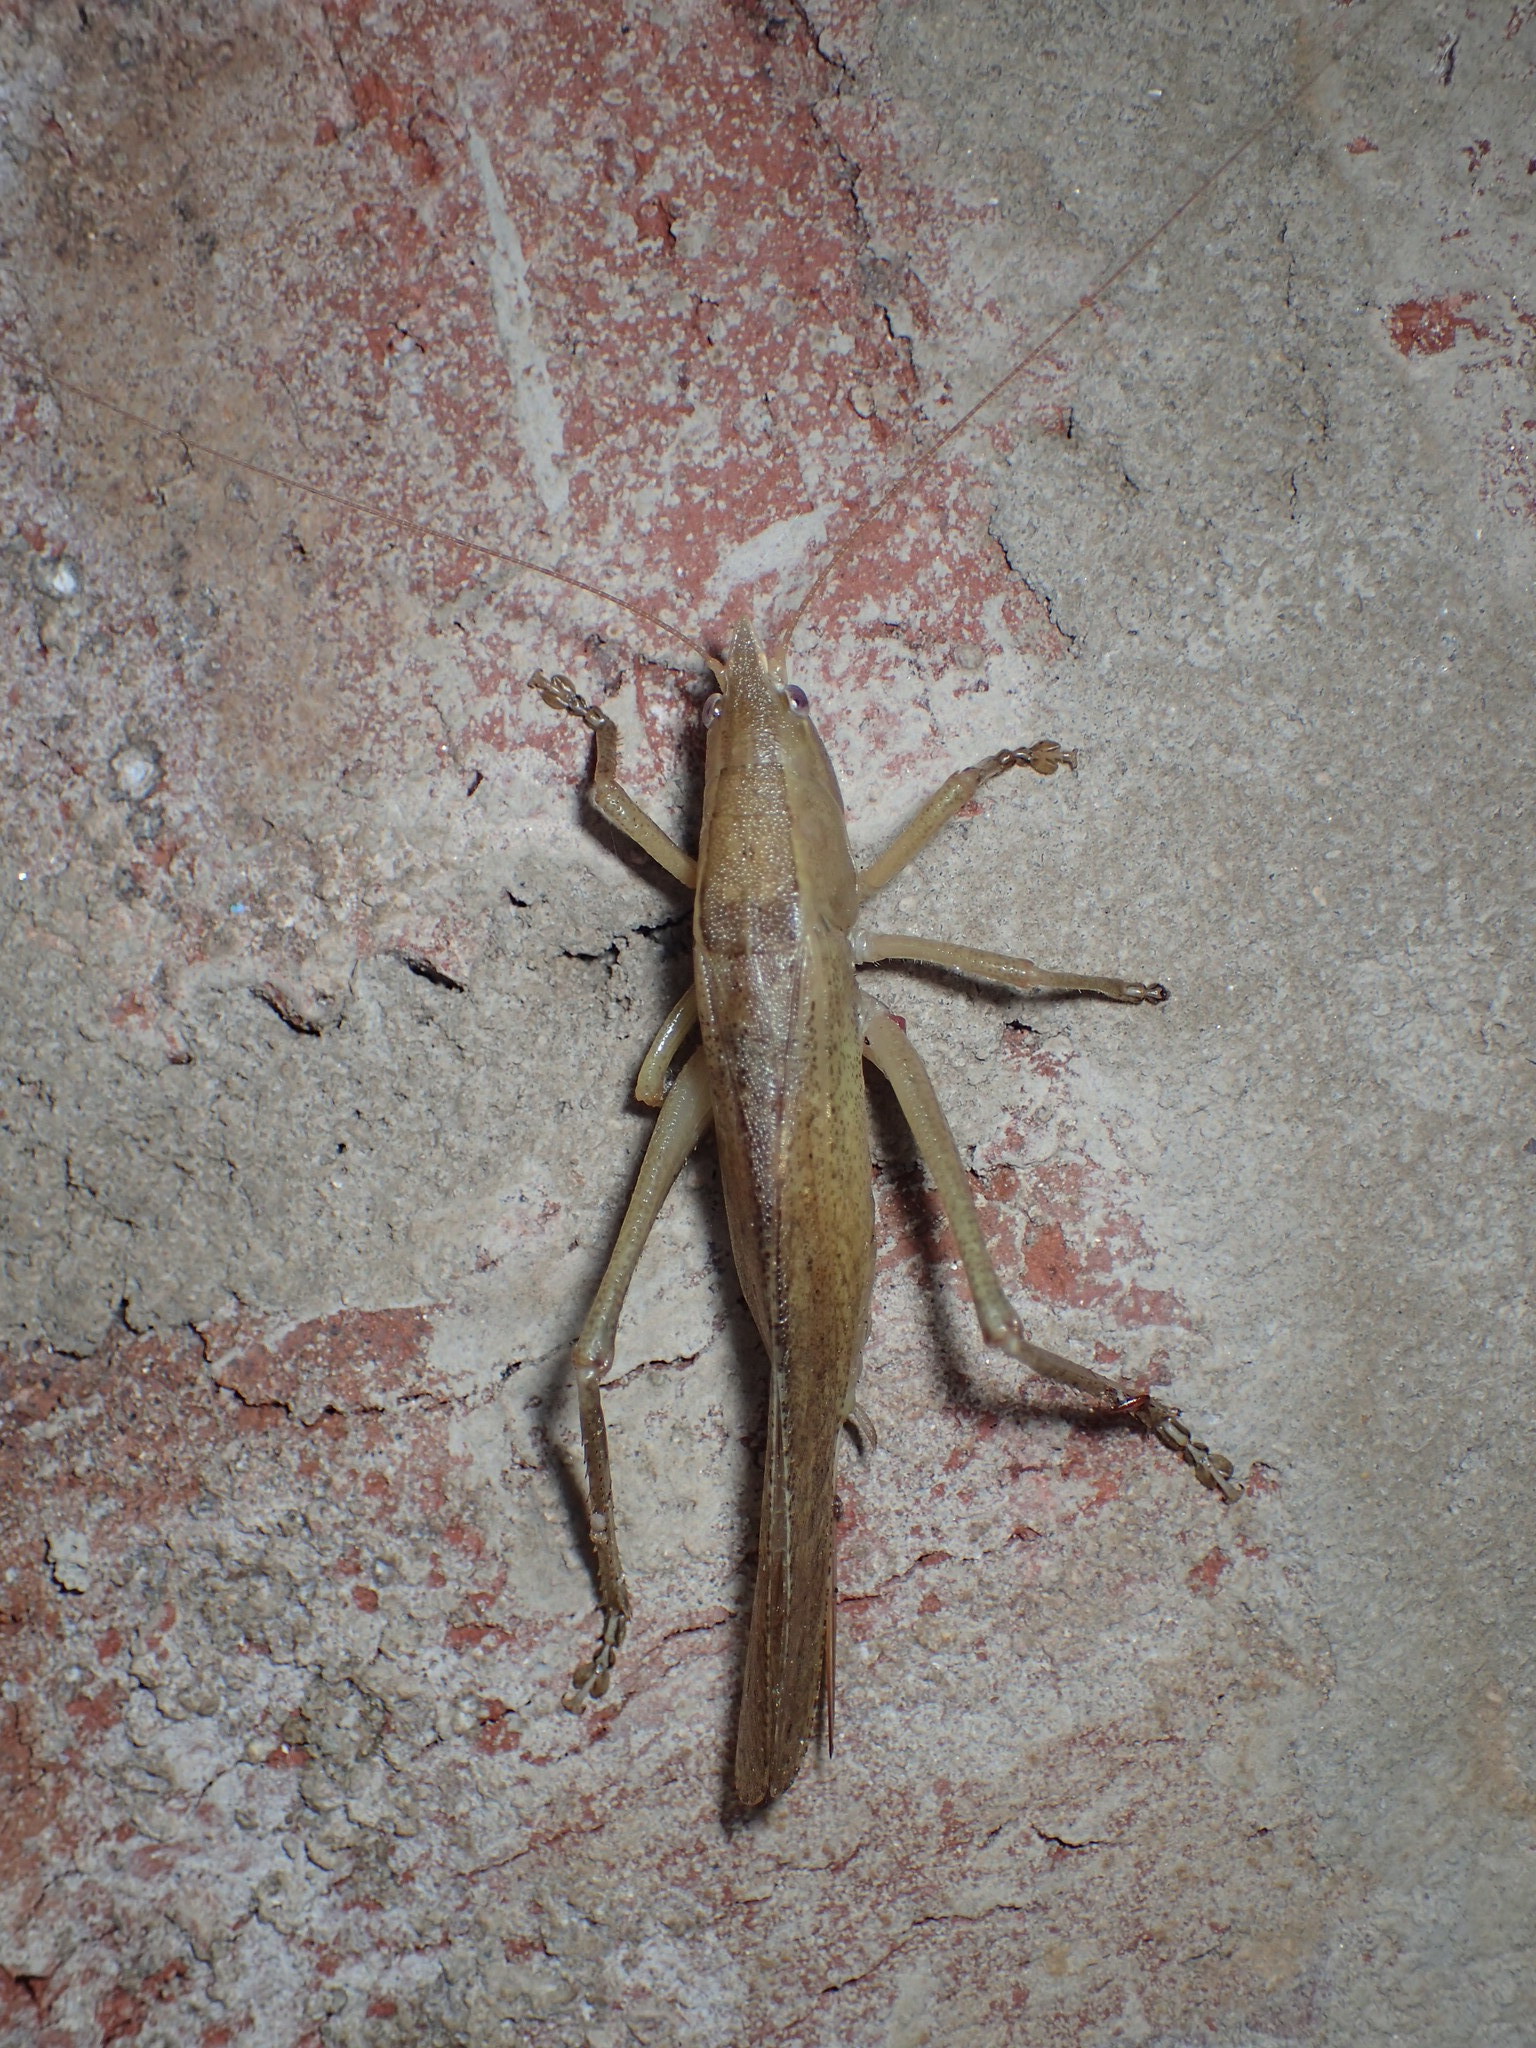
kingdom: Animalia
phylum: Arthropoda
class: Insecta
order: Orthoptera
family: Tettigoniidae
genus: Pyrgocorypha
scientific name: Pyrgocorypha uncinata
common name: Hook-faced conehead
